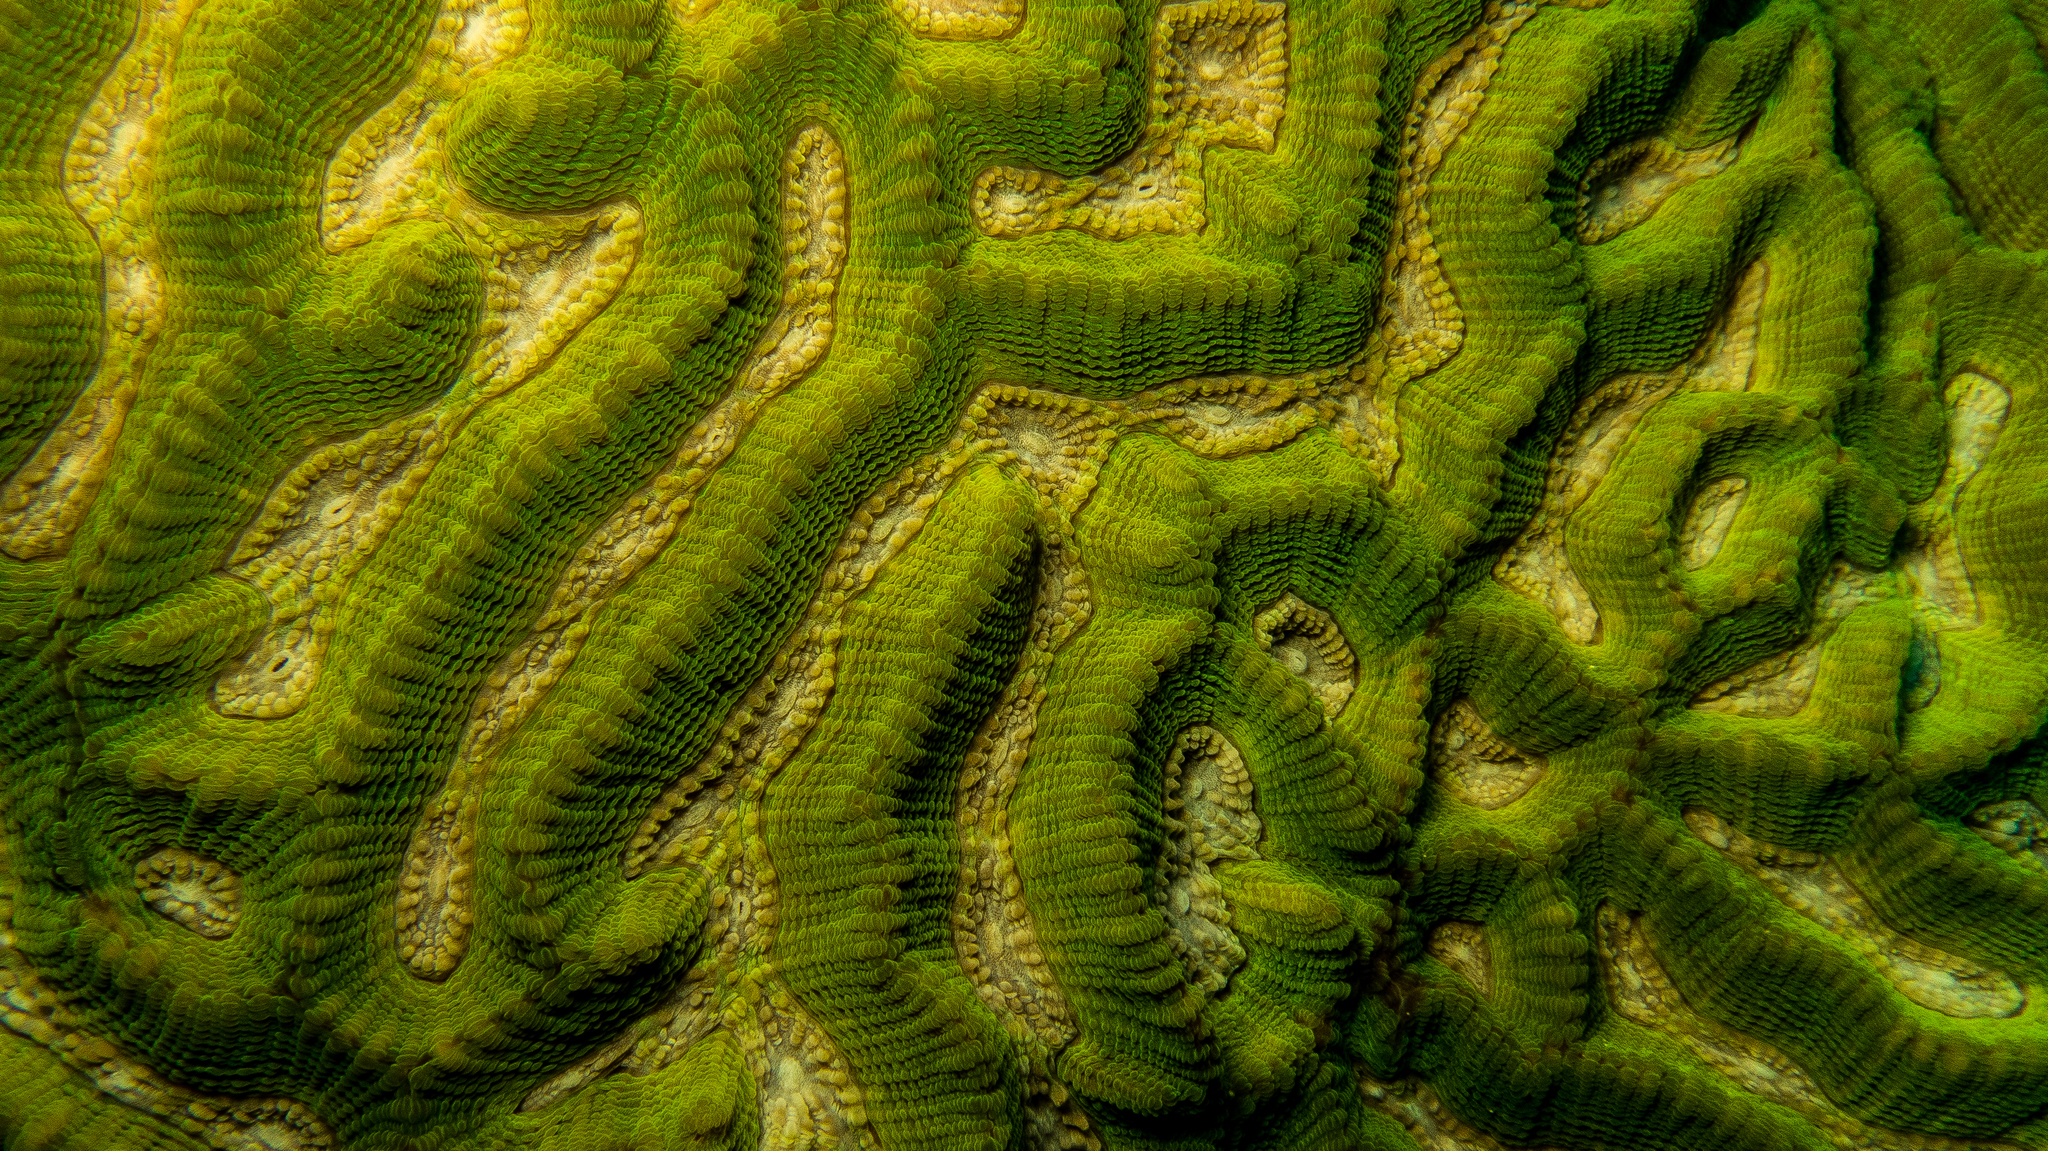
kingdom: Animalia
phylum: Cnidaria
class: Anthozoa
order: Scleractinia
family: Merulinidae
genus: Oulophyllia
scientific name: Oulophyllia crispa
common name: Intermediate valley coral
